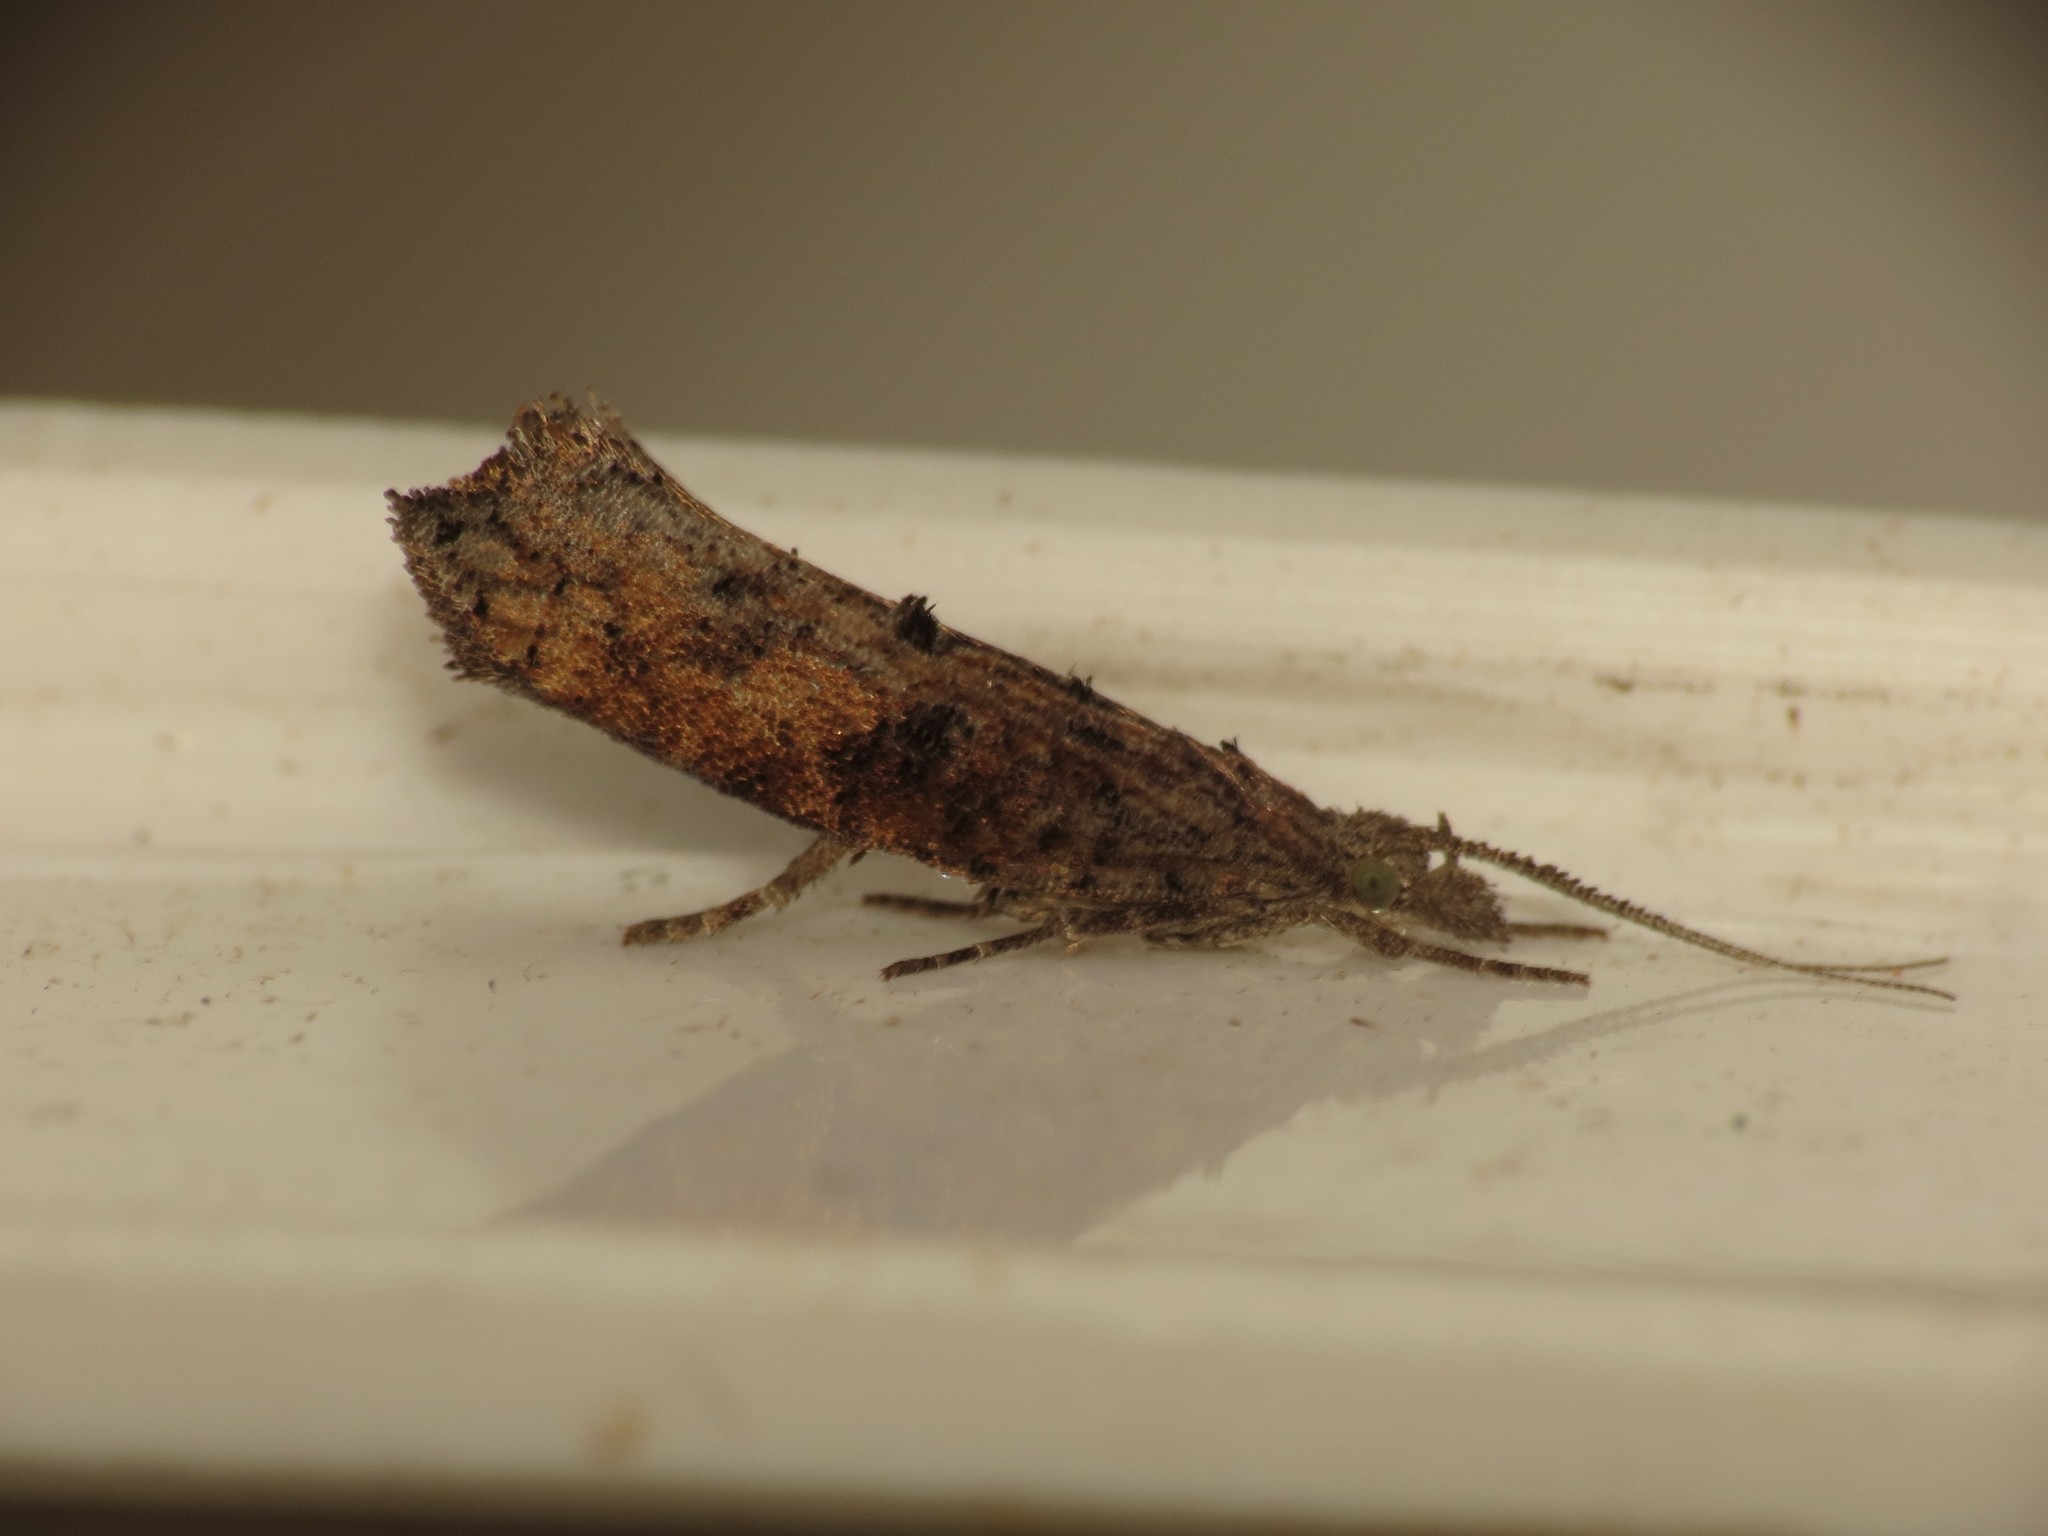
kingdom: Animalia
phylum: Arthropoda
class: Insecta
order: Lepidoptera
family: Ypsolophidae
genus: Ypsolopha
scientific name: Ypsolopha horridella
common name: Dark smudge
